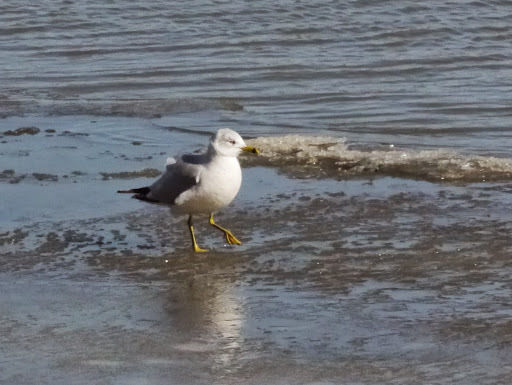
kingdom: Animalia
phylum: Chordata
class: Aves
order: Charadriiformes
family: Laridae
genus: Larus
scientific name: Larus delawarensis
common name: Ring-billed gull
